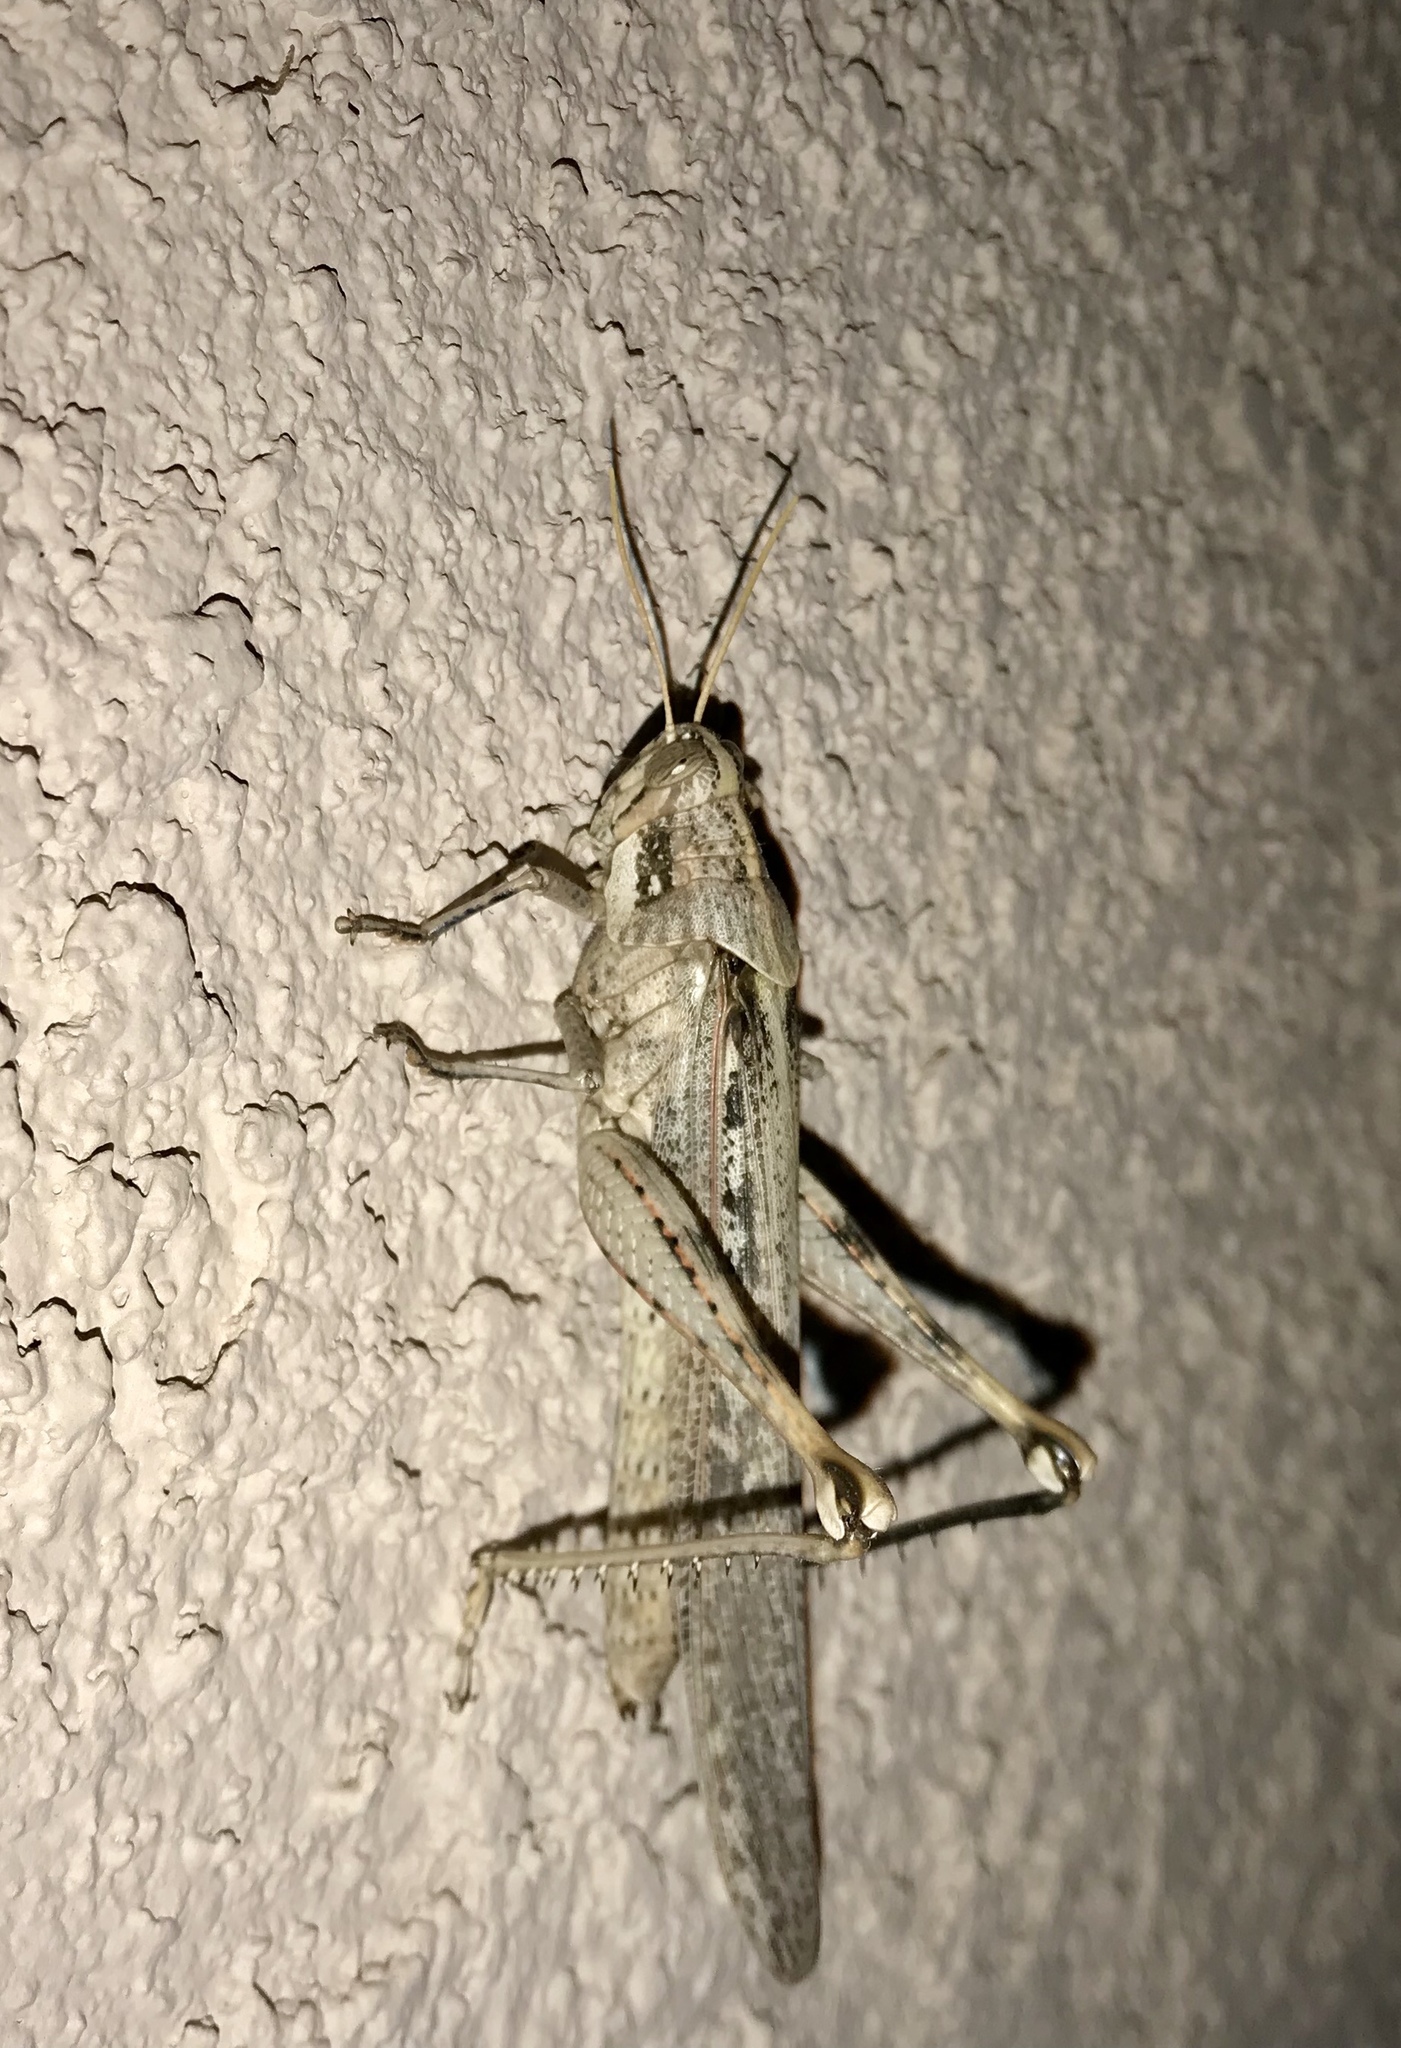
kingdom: Animalia
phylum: Arthropoda
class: Insecta
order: Orthoptera
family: Acrididae
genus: Schistocerca
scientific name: Schistocerca nitens
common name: Vagrant grasshopper
